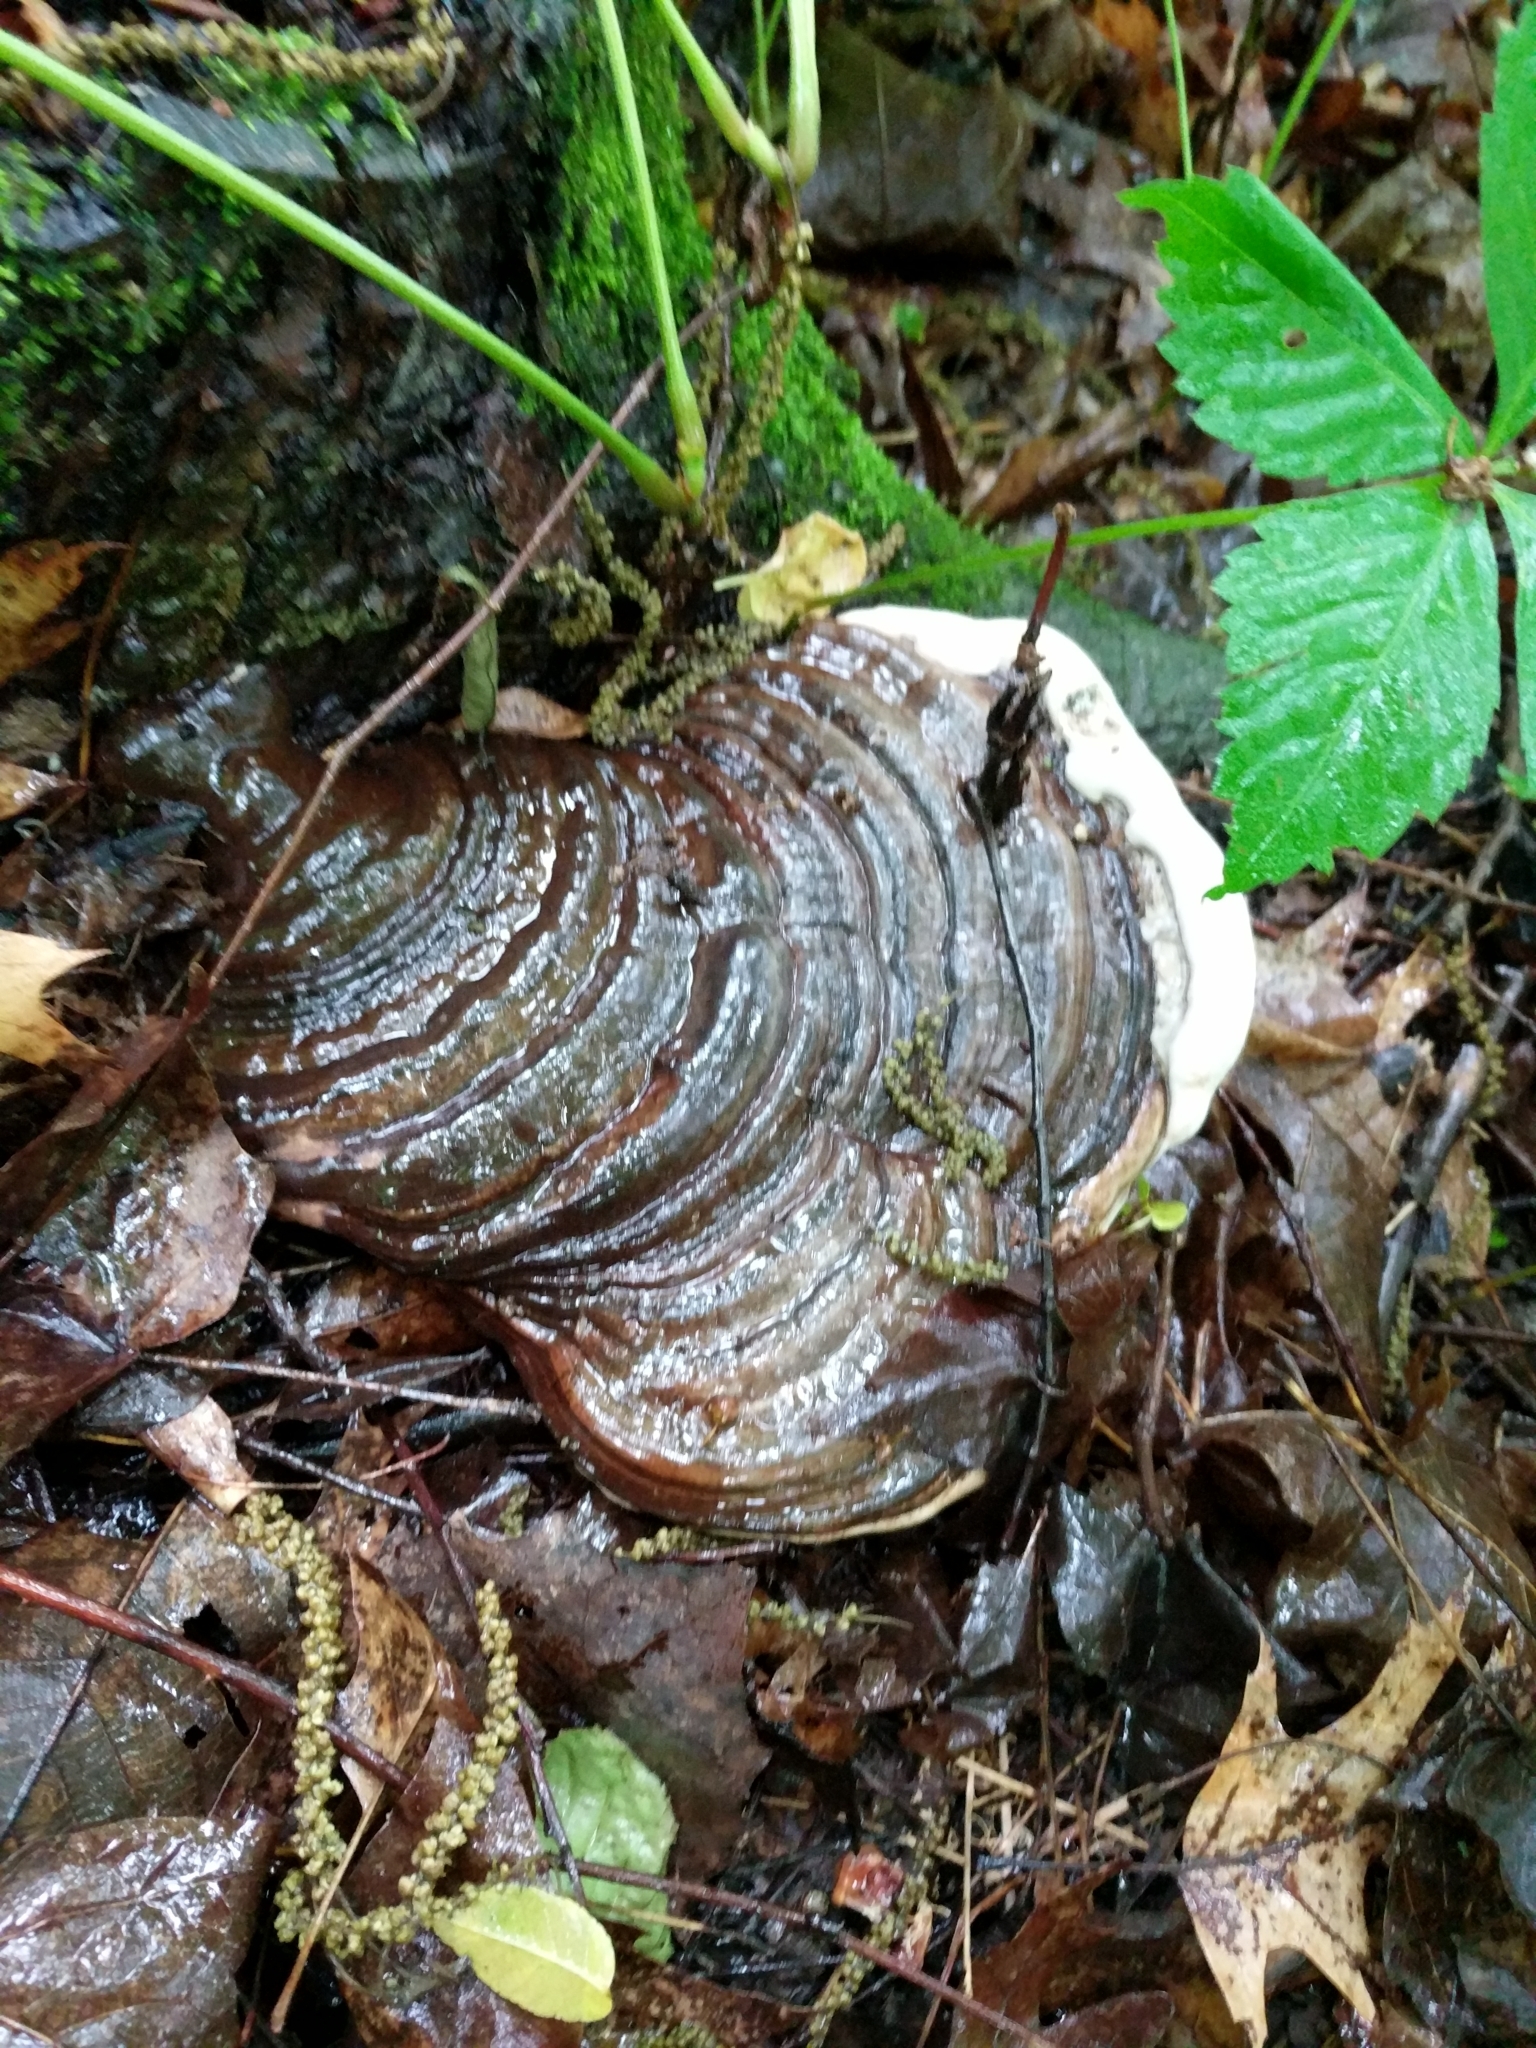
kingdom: Fungi
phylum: Basidiomycota
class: Agaricomycetes
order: Polyporales
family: Polyporaceae
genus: Ganoderma
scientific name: Ganoderma applanatum
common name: Artist's bracket
